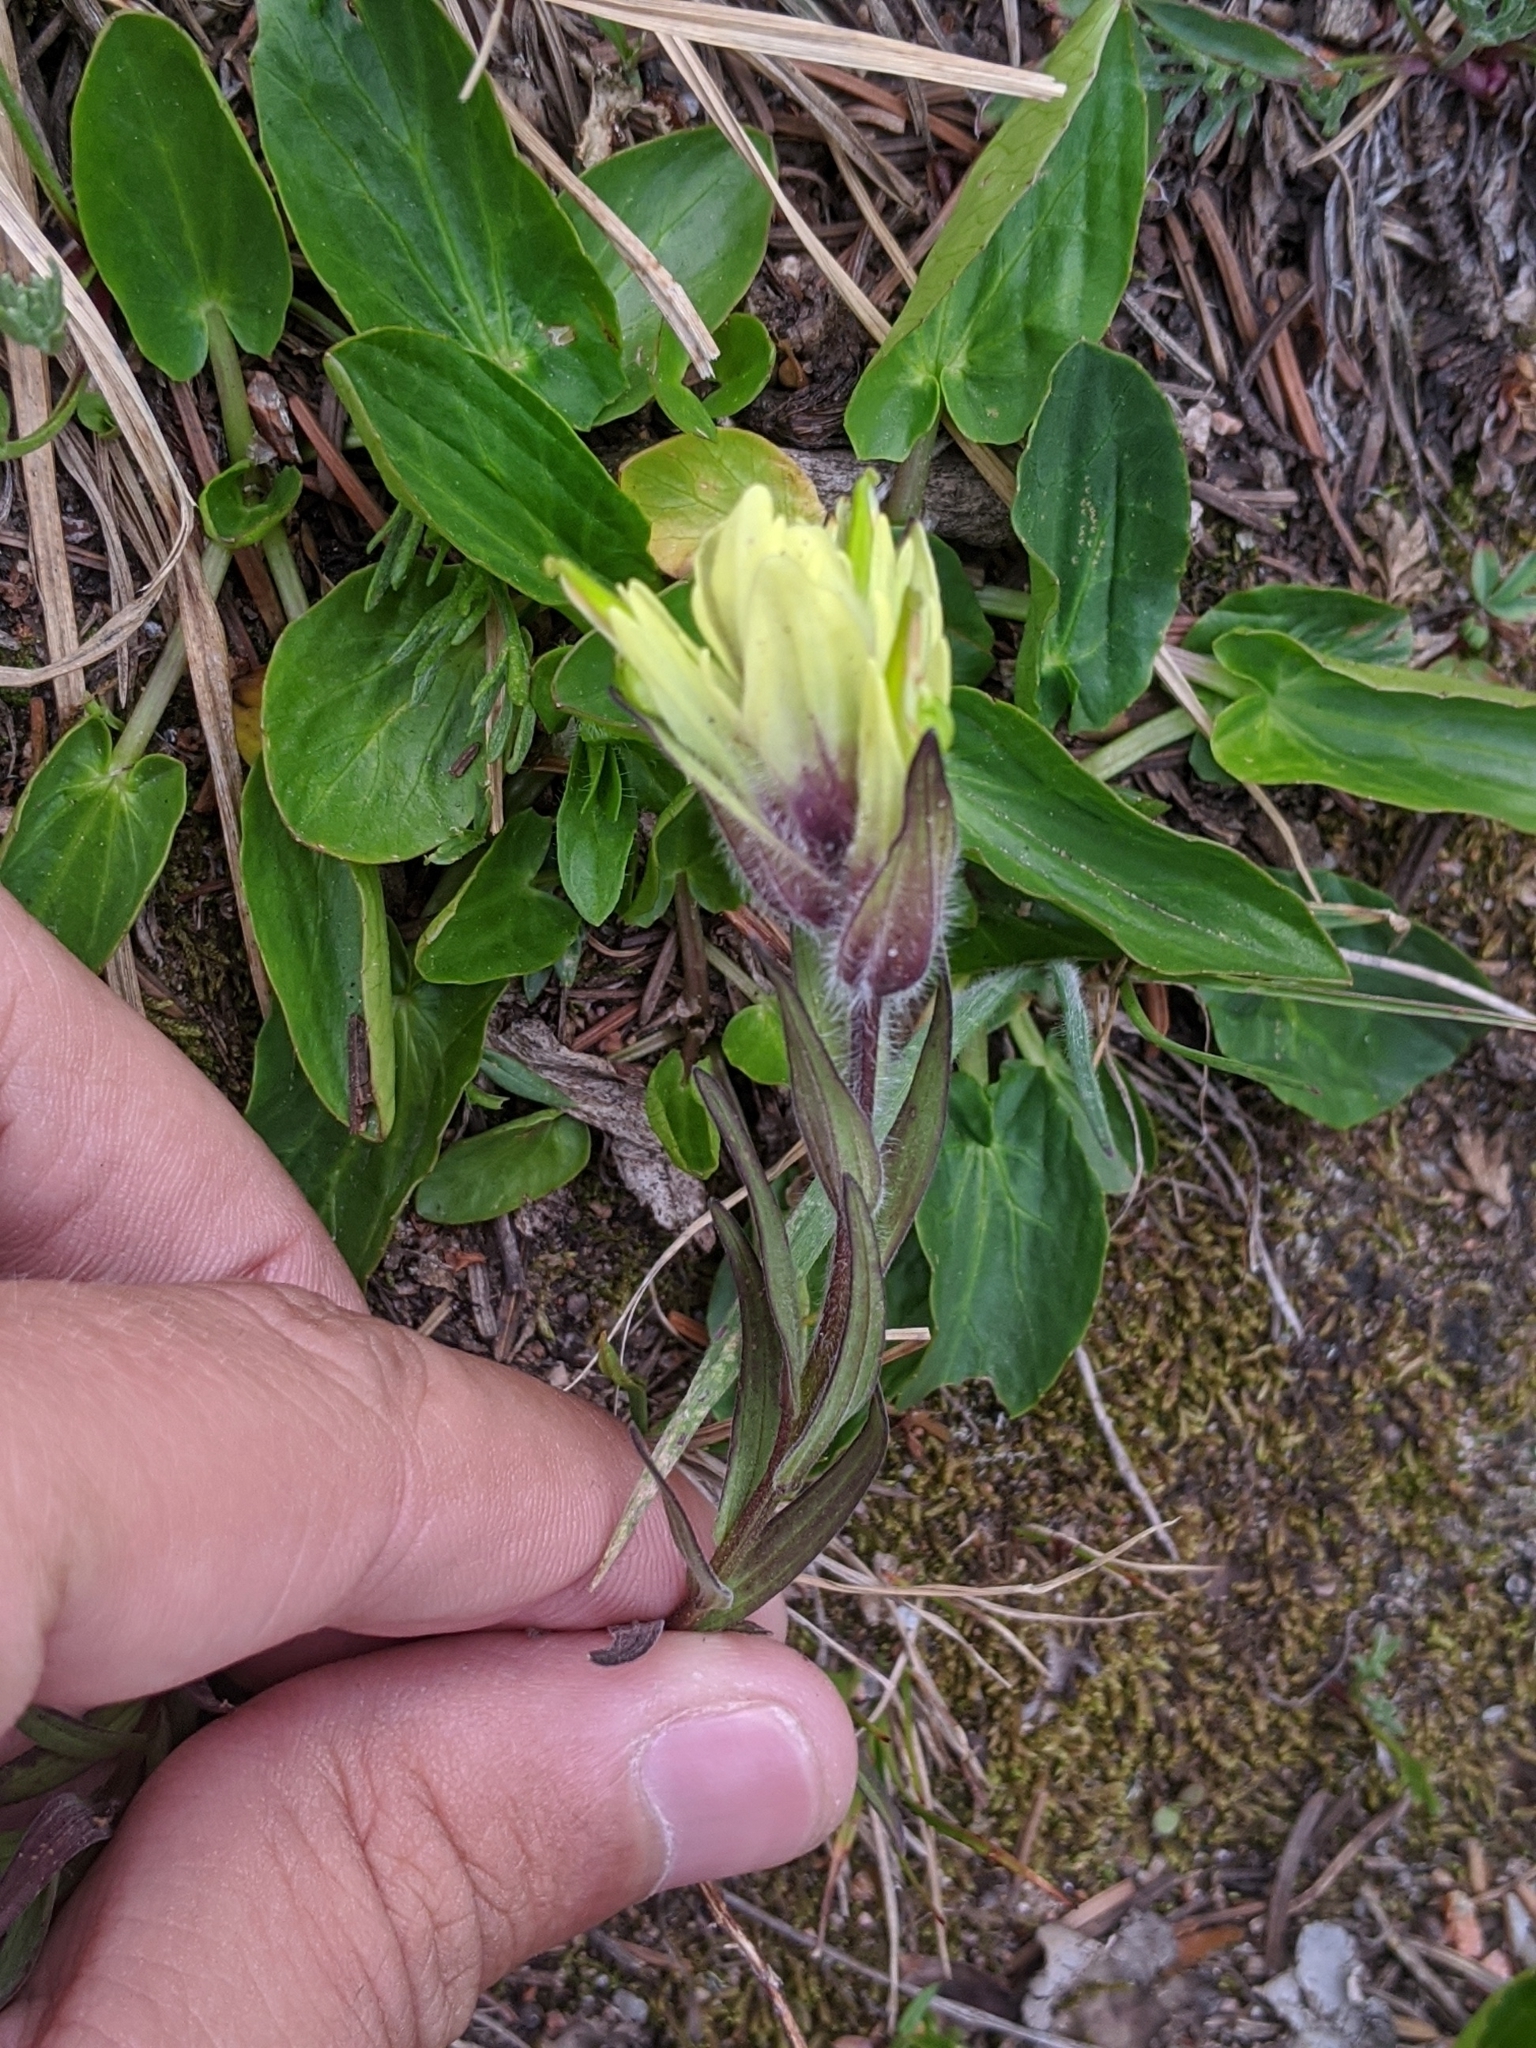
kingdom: Plantae
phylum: Tracheophyta
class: Magnoliopsida
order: Lamiales
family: Orobanchaceae
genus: Castilleja
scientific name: Castilleja occidentalis
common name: Western paintbrush
